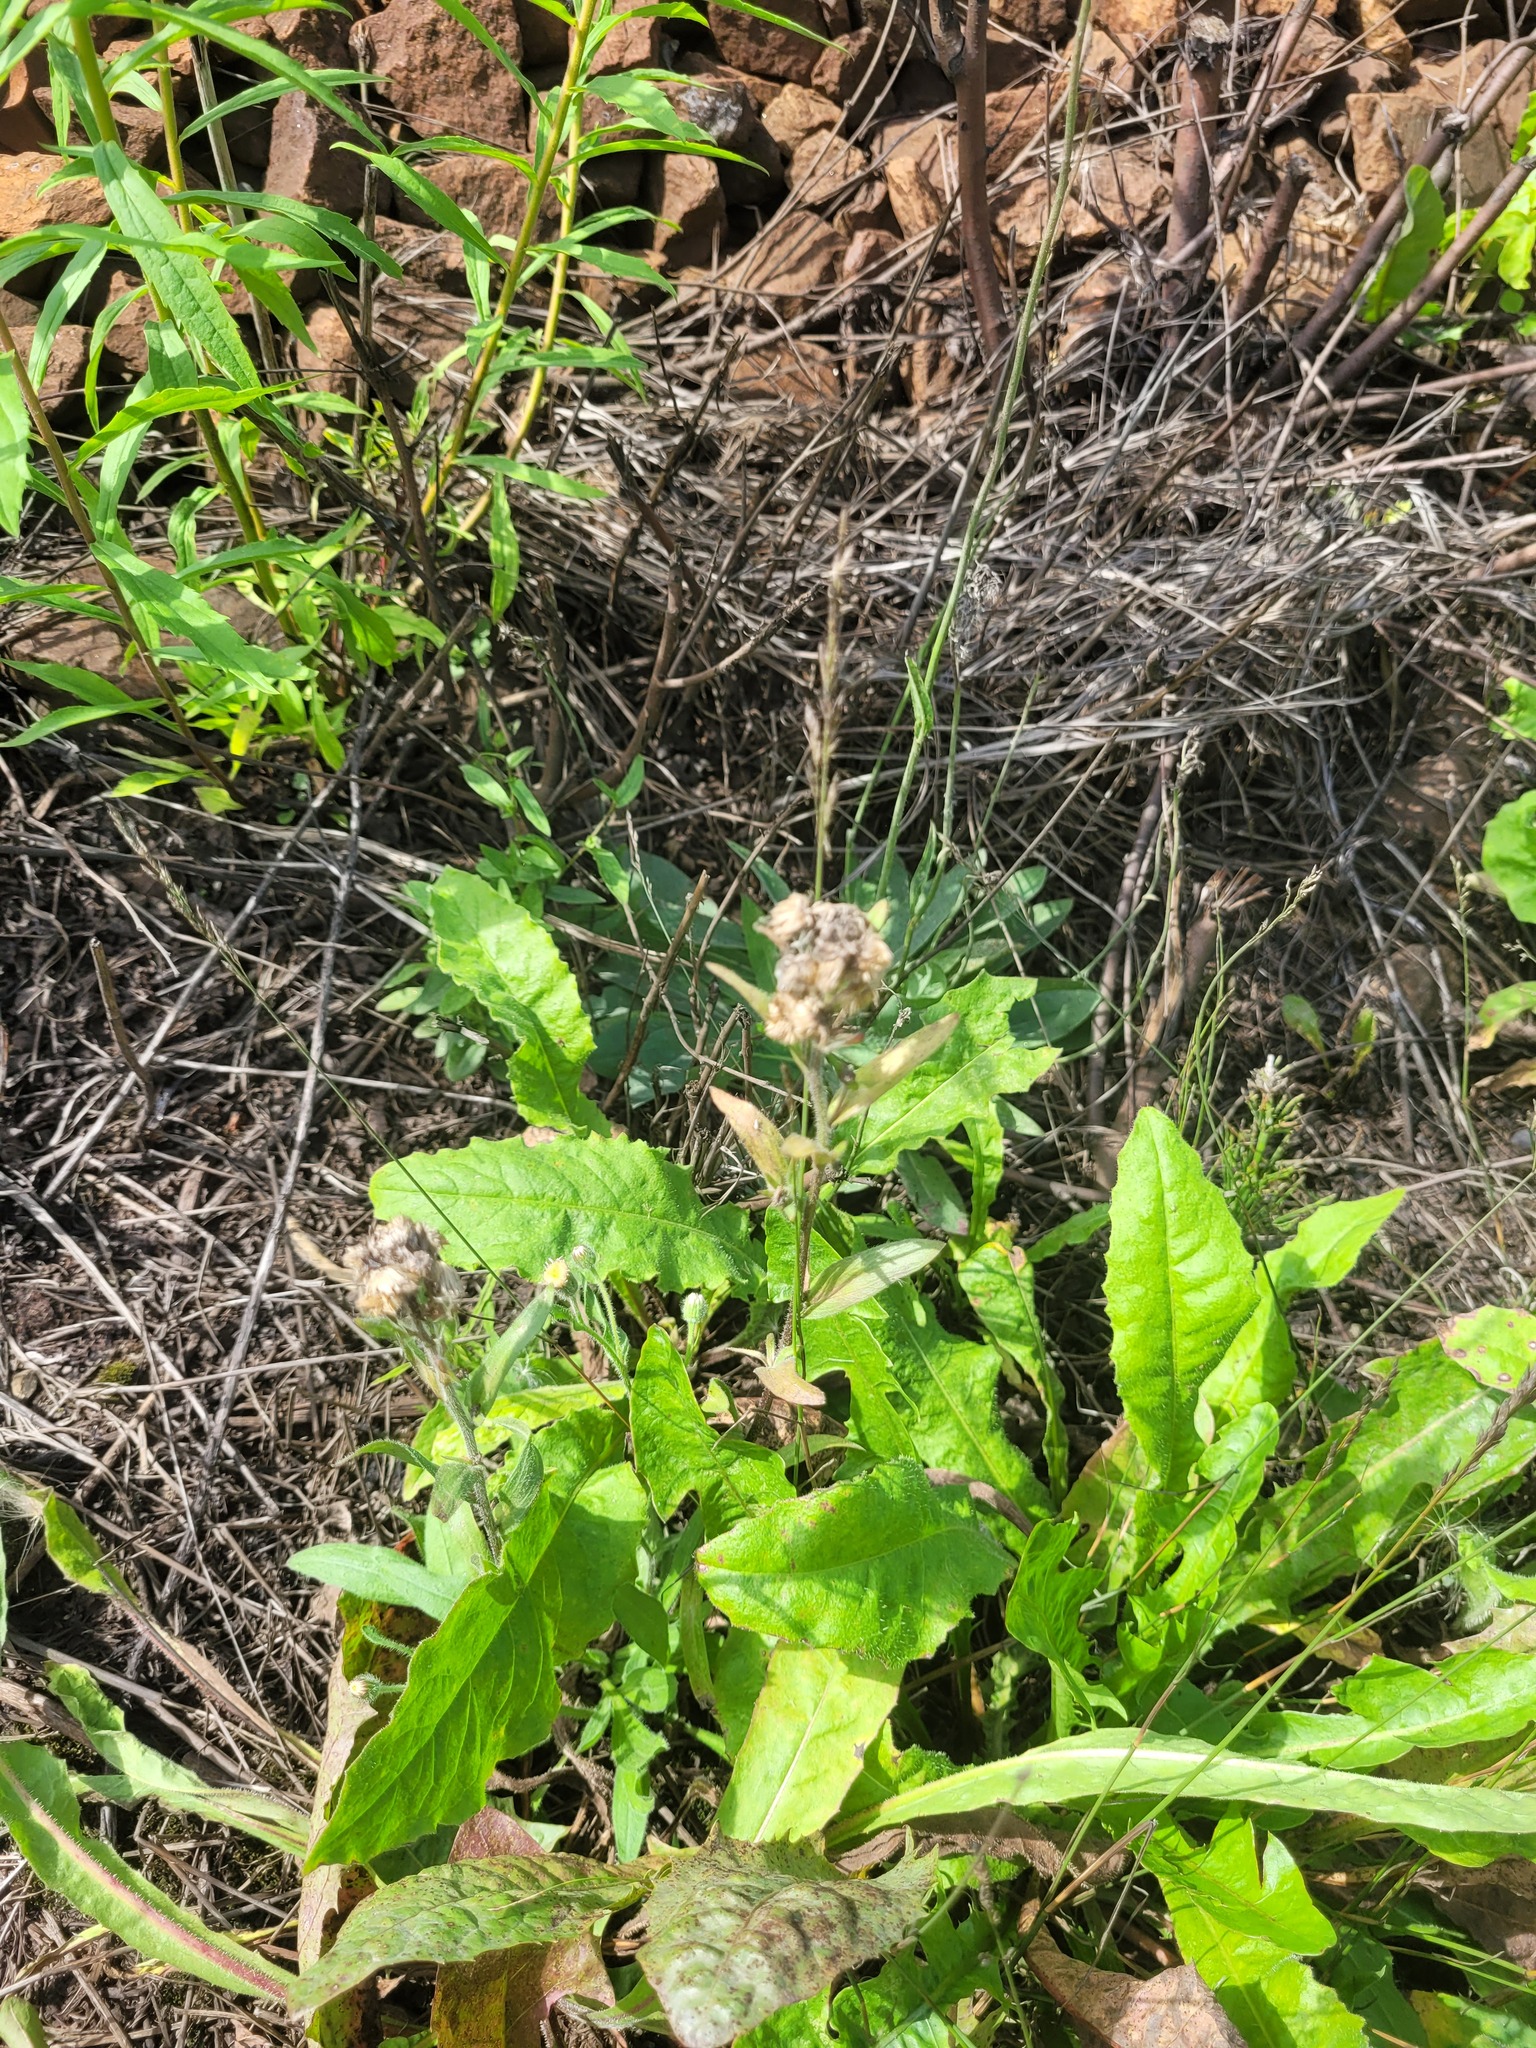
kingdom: Plantae
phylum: Tracheophyta
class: Magnoliopsida
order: Asterales
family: Asteraceae
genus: Erigeron
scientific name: Erigeron acris
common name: Blue fleabane
